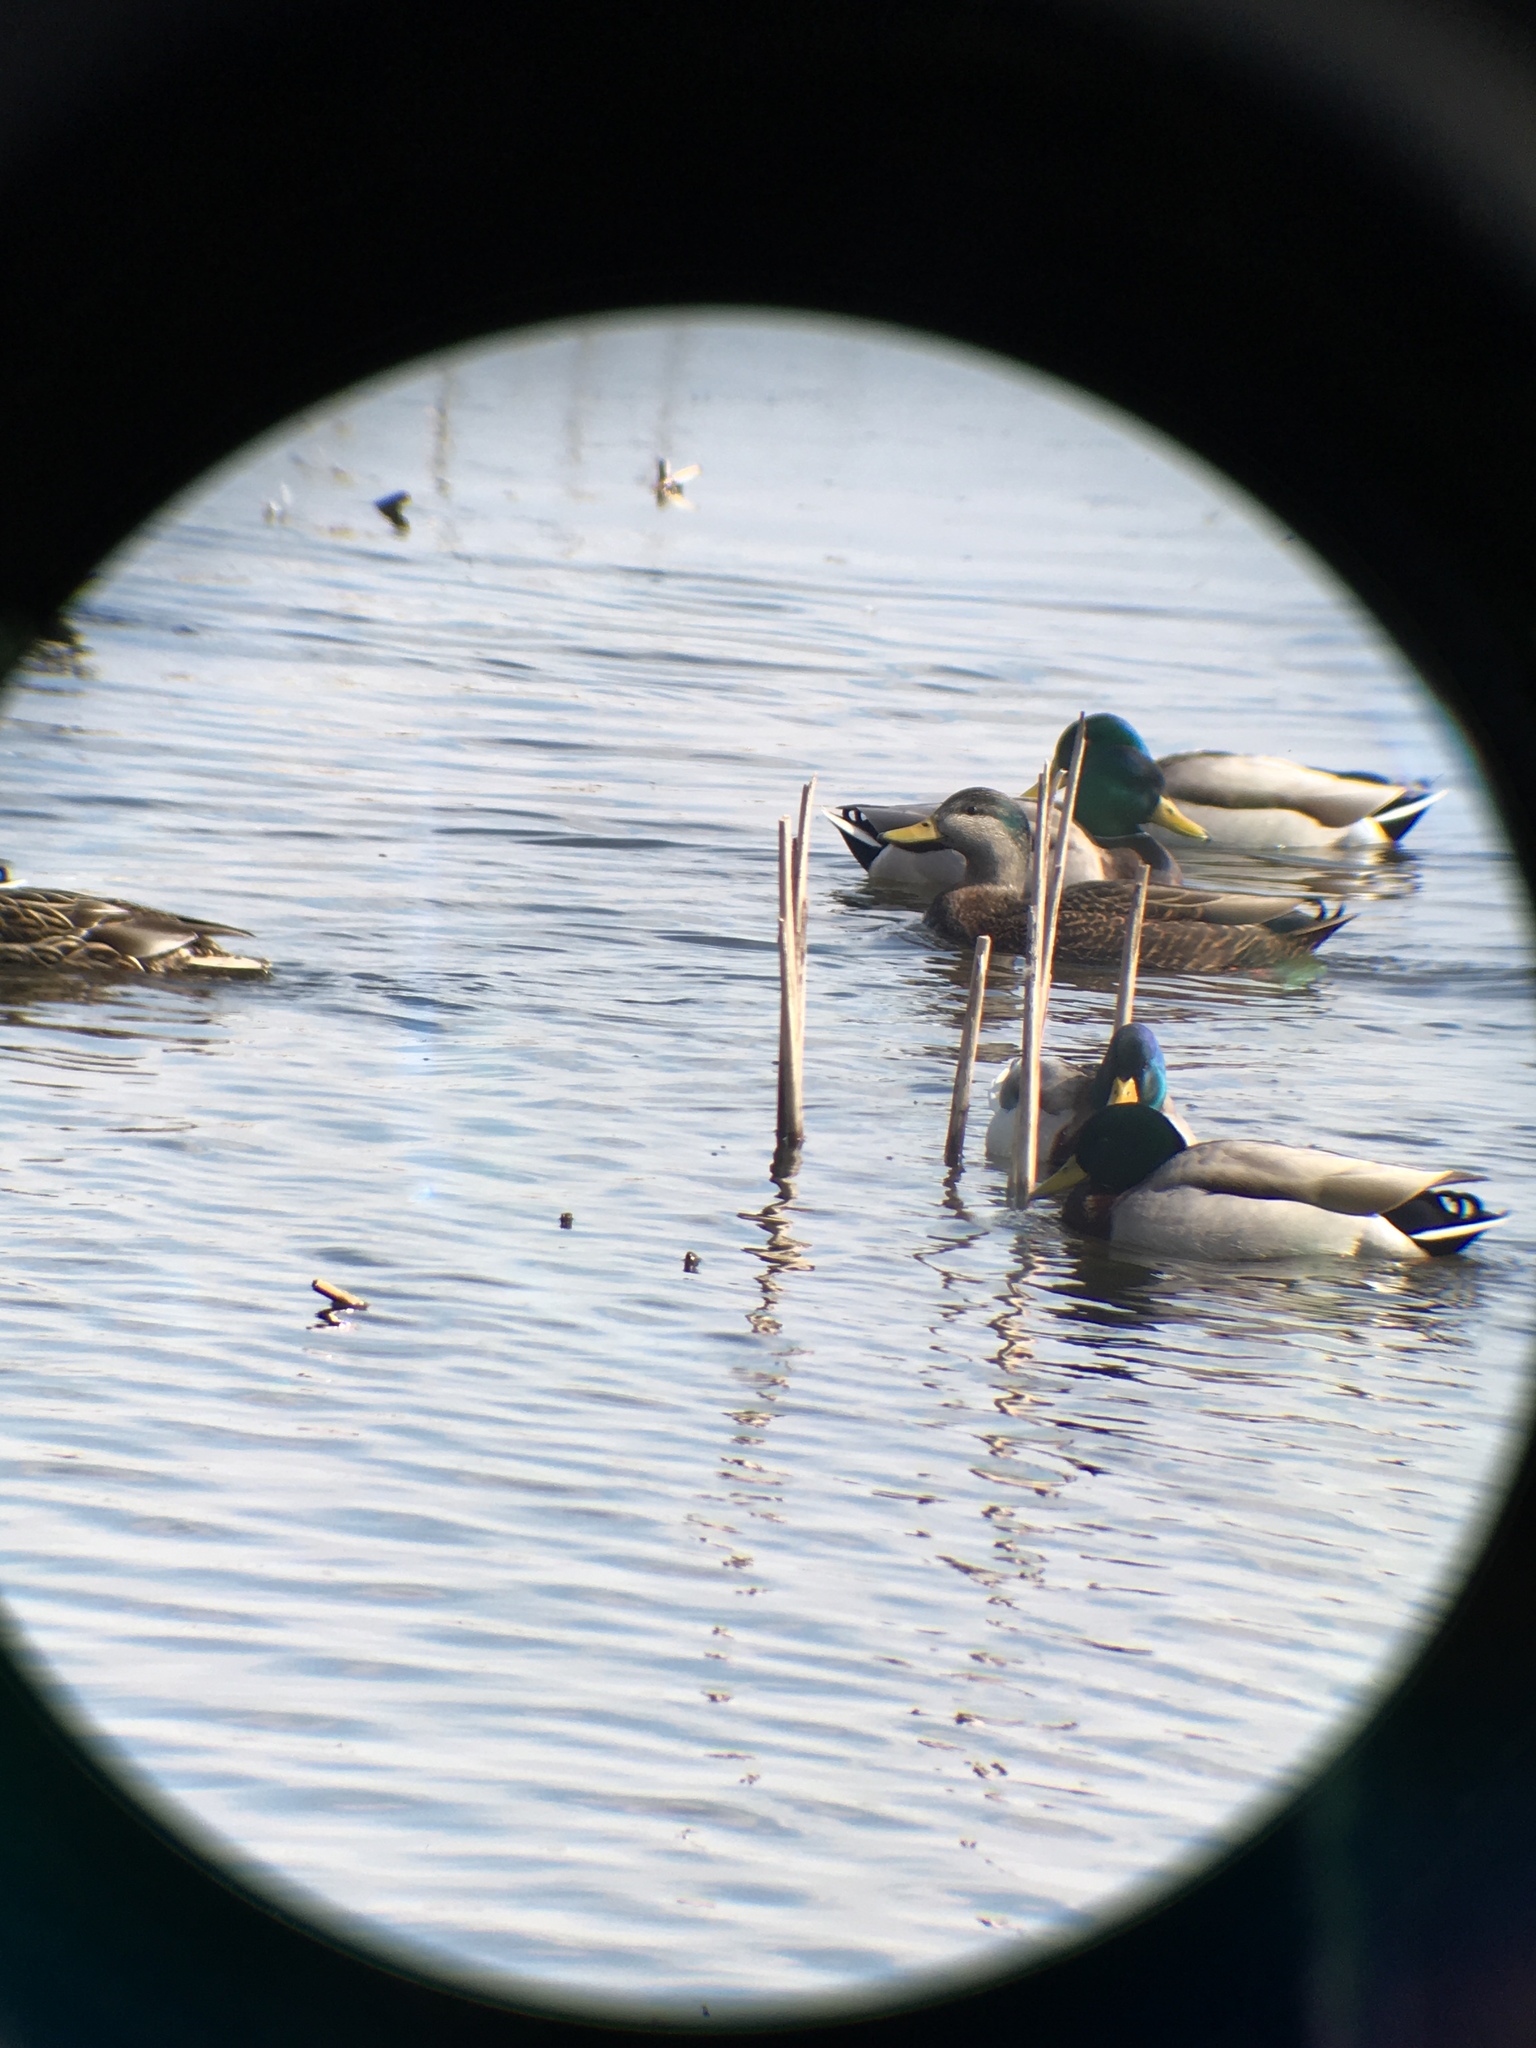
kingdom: Animalia
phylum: Chordata
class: Aves
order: Anseriformes
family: Anatidae
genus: Anas
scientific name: Anas
